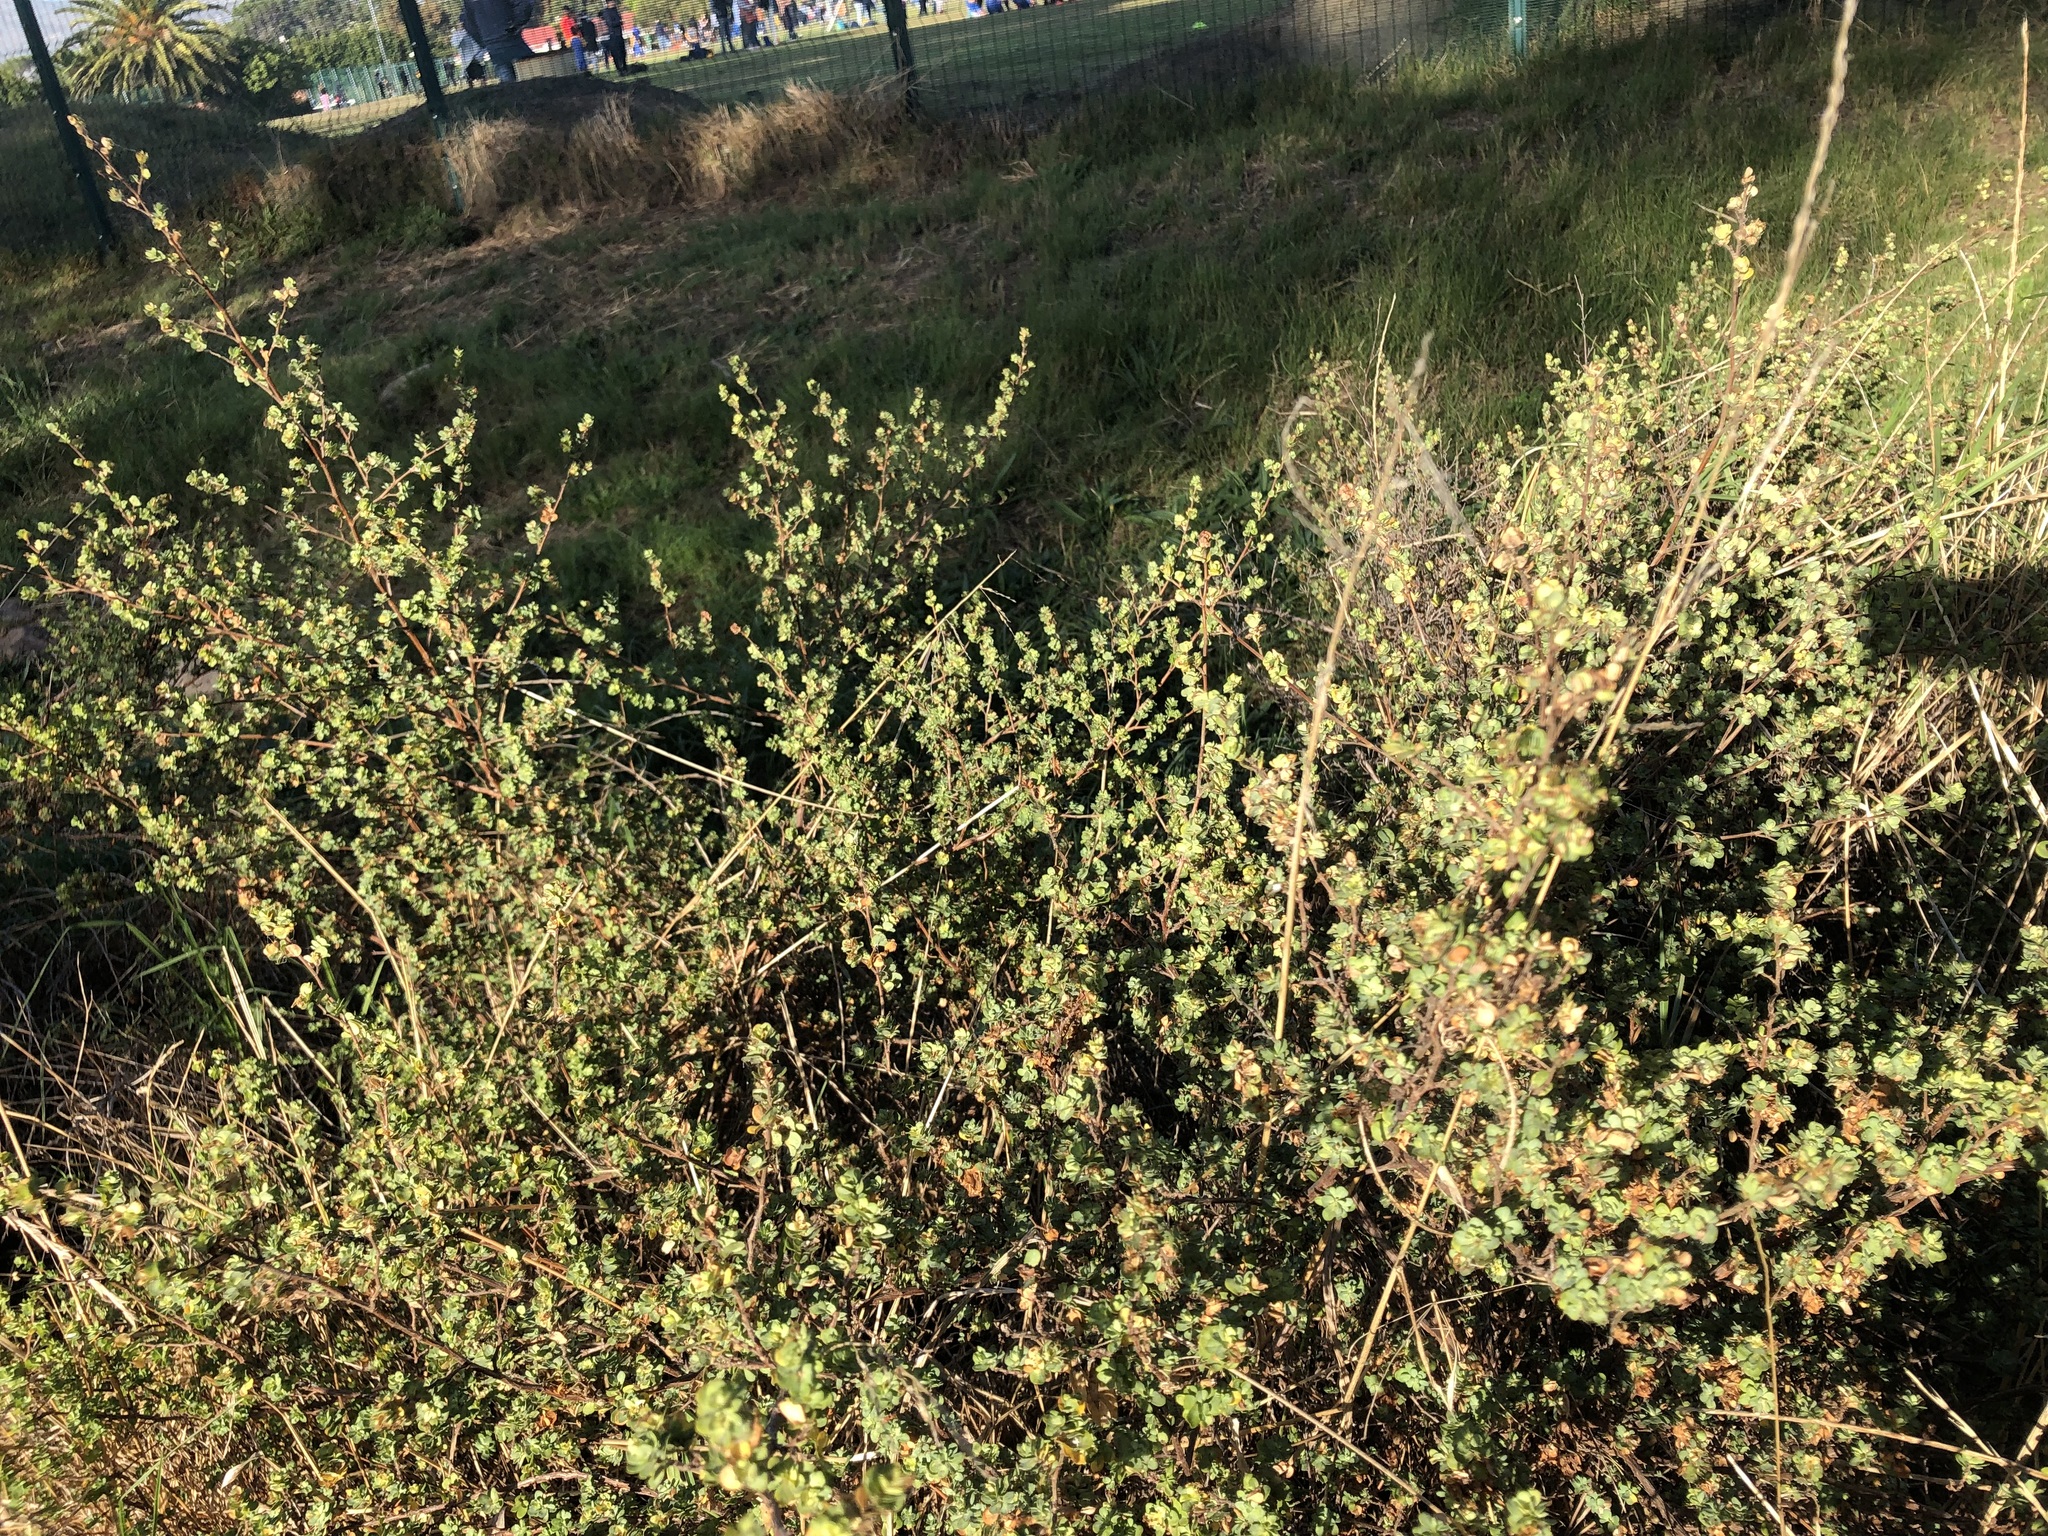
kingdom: Plantae
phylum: Tracheophyta
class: Magnoliopsida
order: Rosales
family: Rosaceae
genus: Cliffortia
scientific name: Cliffortia obcordata
